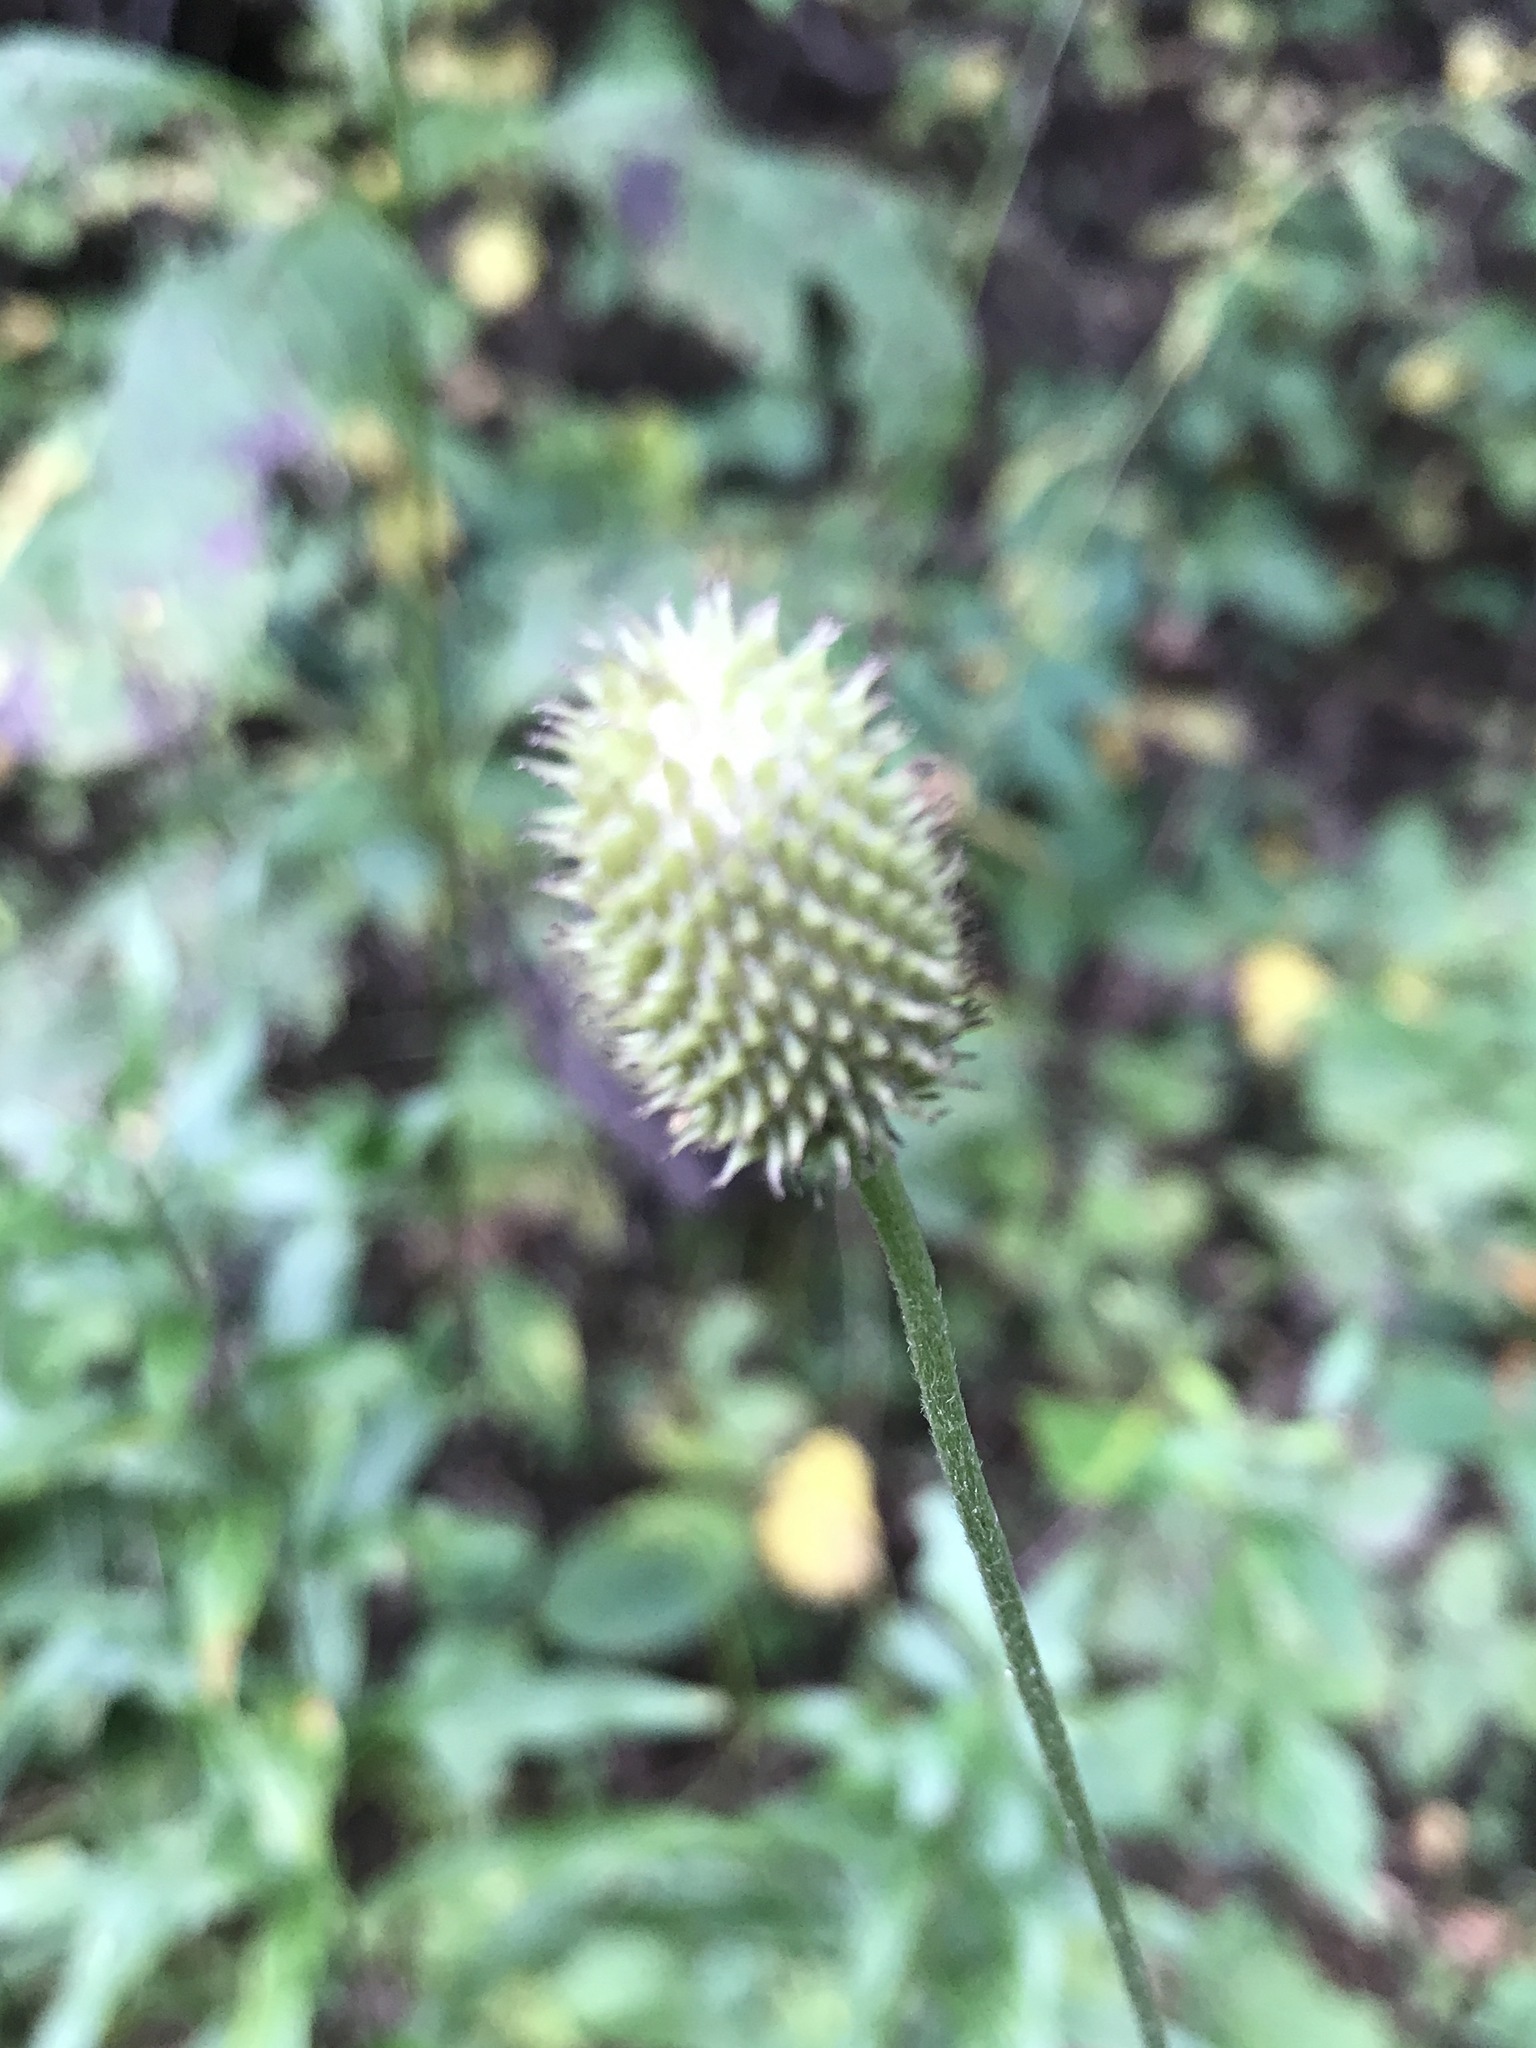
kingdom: Plantae
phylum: Tracheophyta
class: Magnoliopsida
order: Ranunculales
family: Ranunculaceae
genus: Anemone
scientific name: Anemone virginiana
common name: Tall anemone
